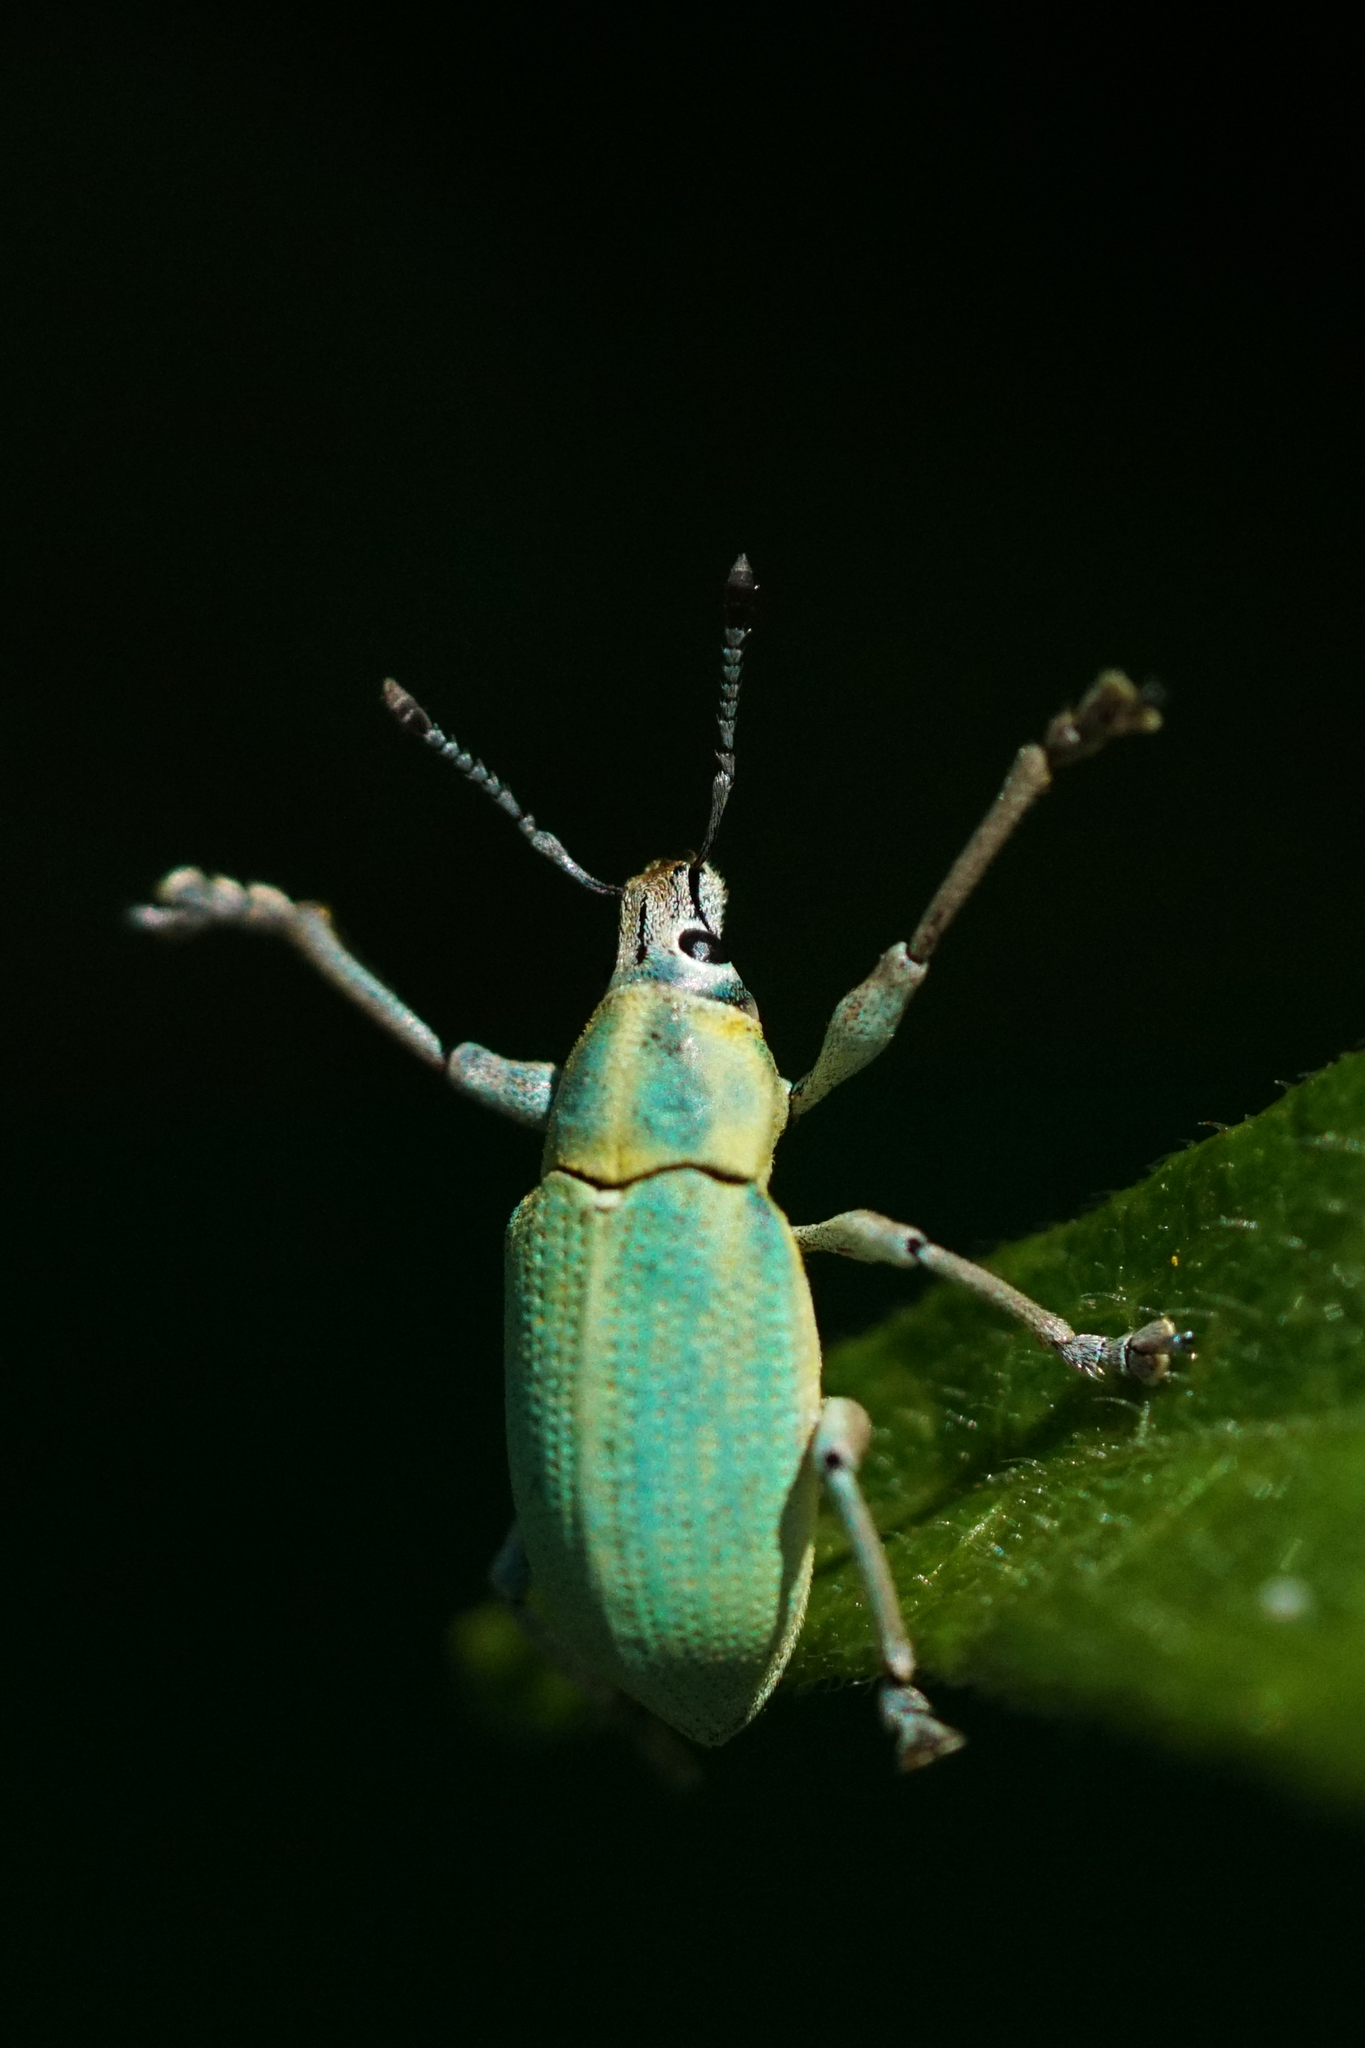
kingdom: Animalia
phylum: Arthropoda
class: Insecta
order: Coleoptera
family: Curculionidae
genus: Pachnaeus
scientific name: Pachnaeus litus
